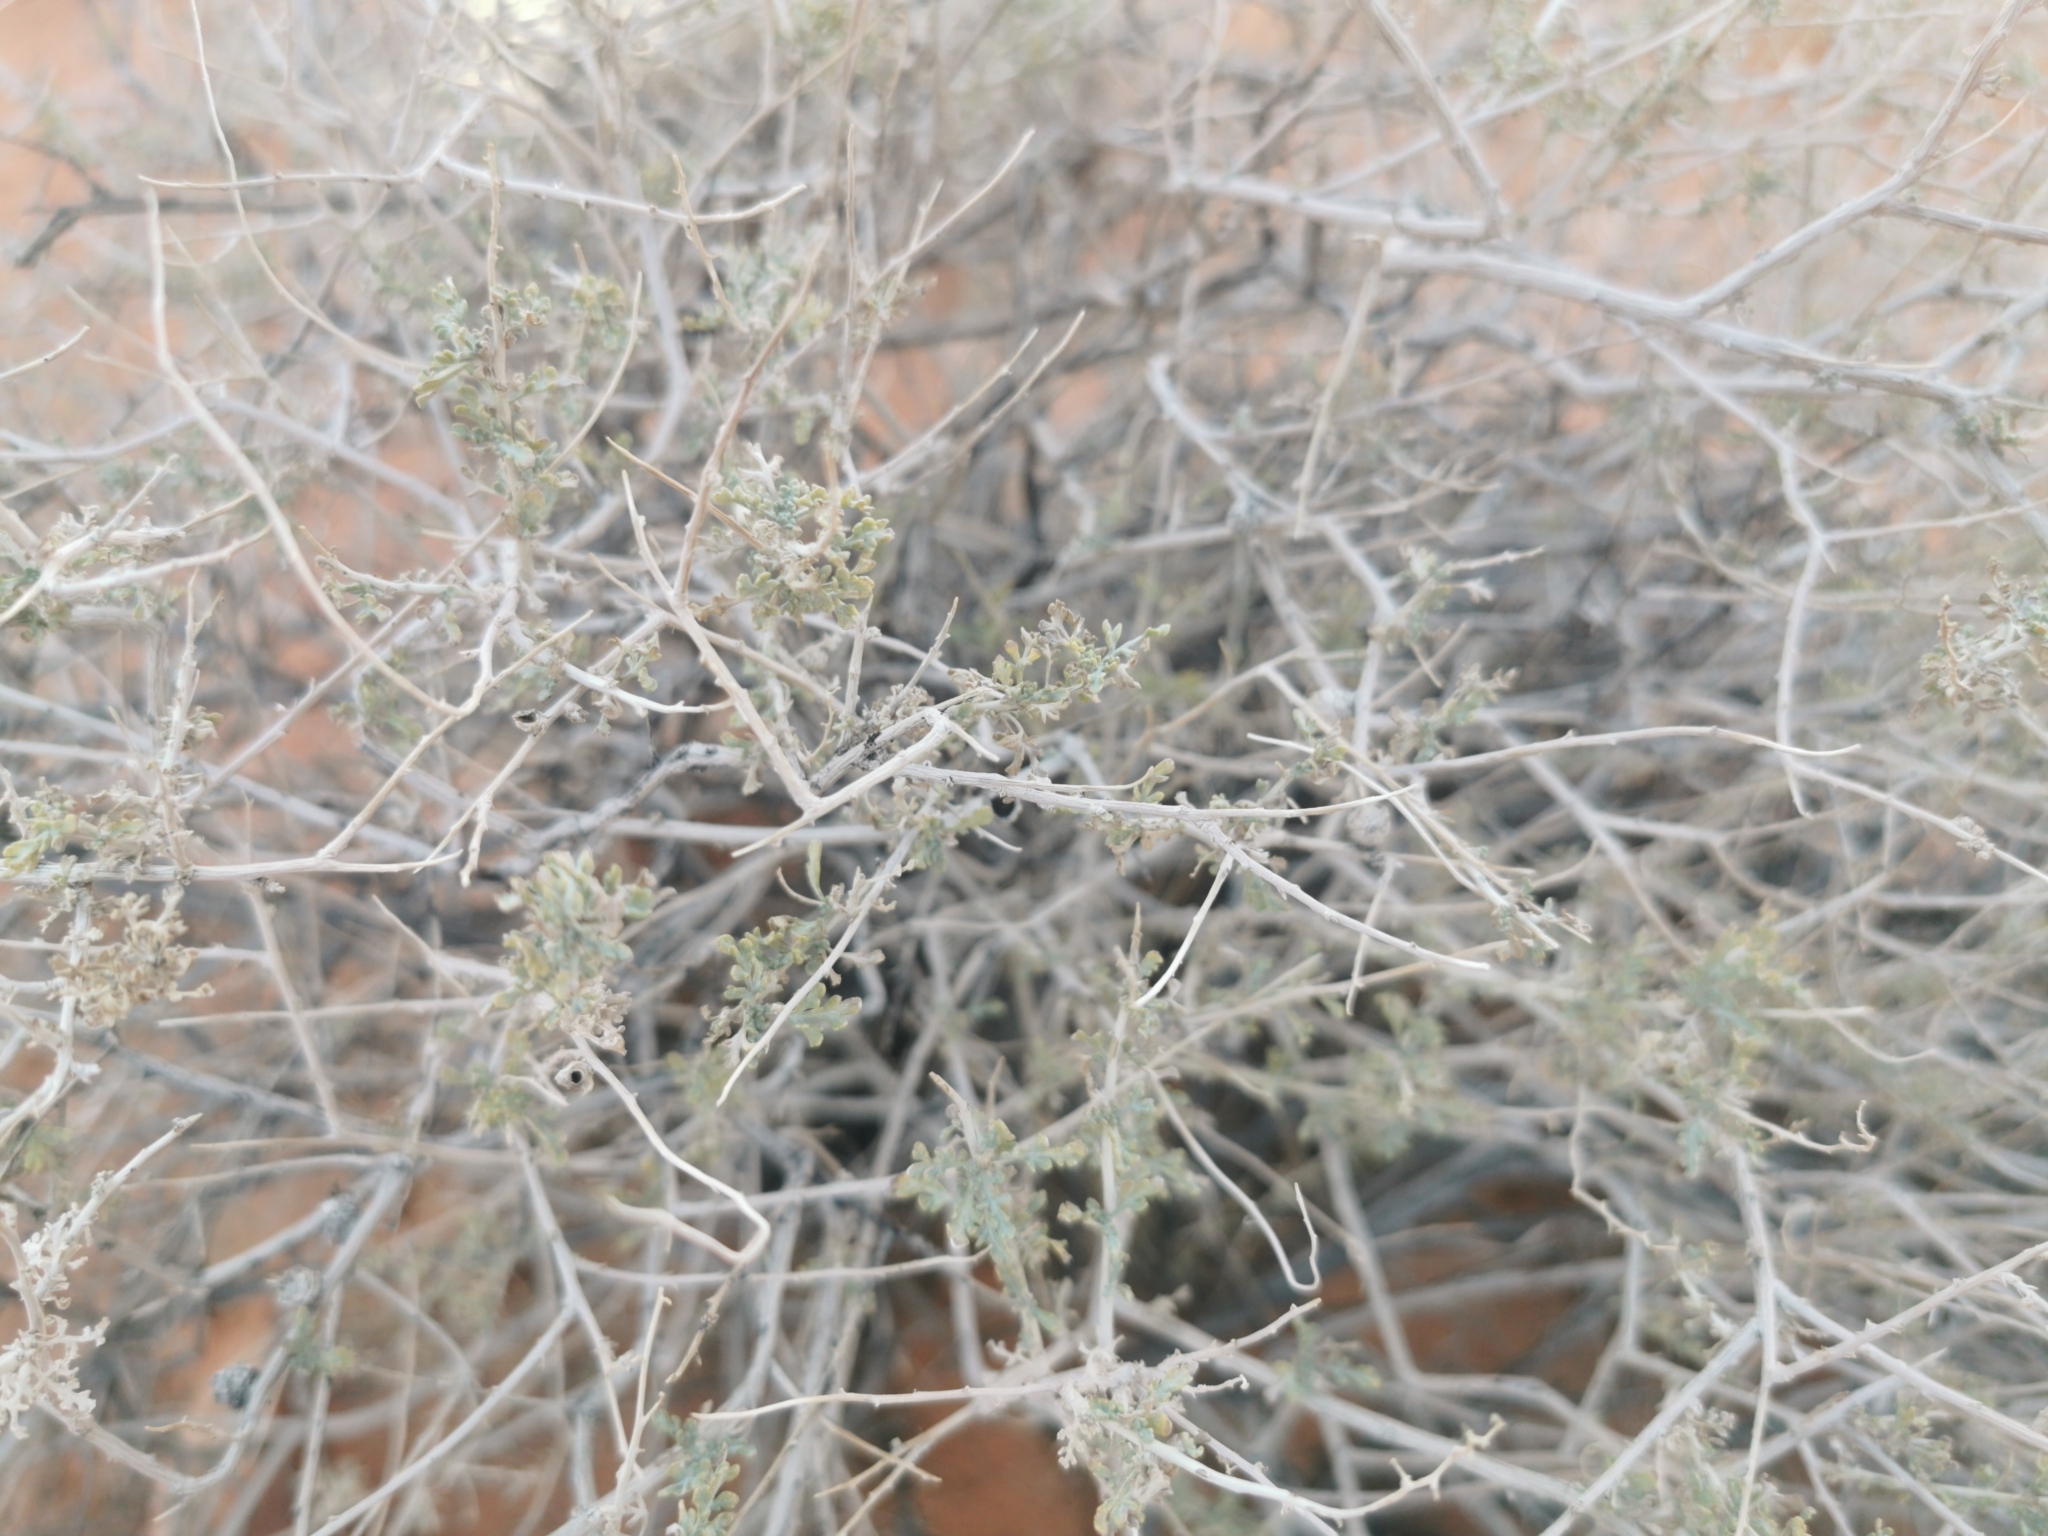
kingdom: Plantae
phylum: Tracheophyta
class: Magnoliopsida
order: Asterales
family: Asteraceae
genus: Ambrosia
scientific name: Ambrosia dumosa
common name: Bur-sage
